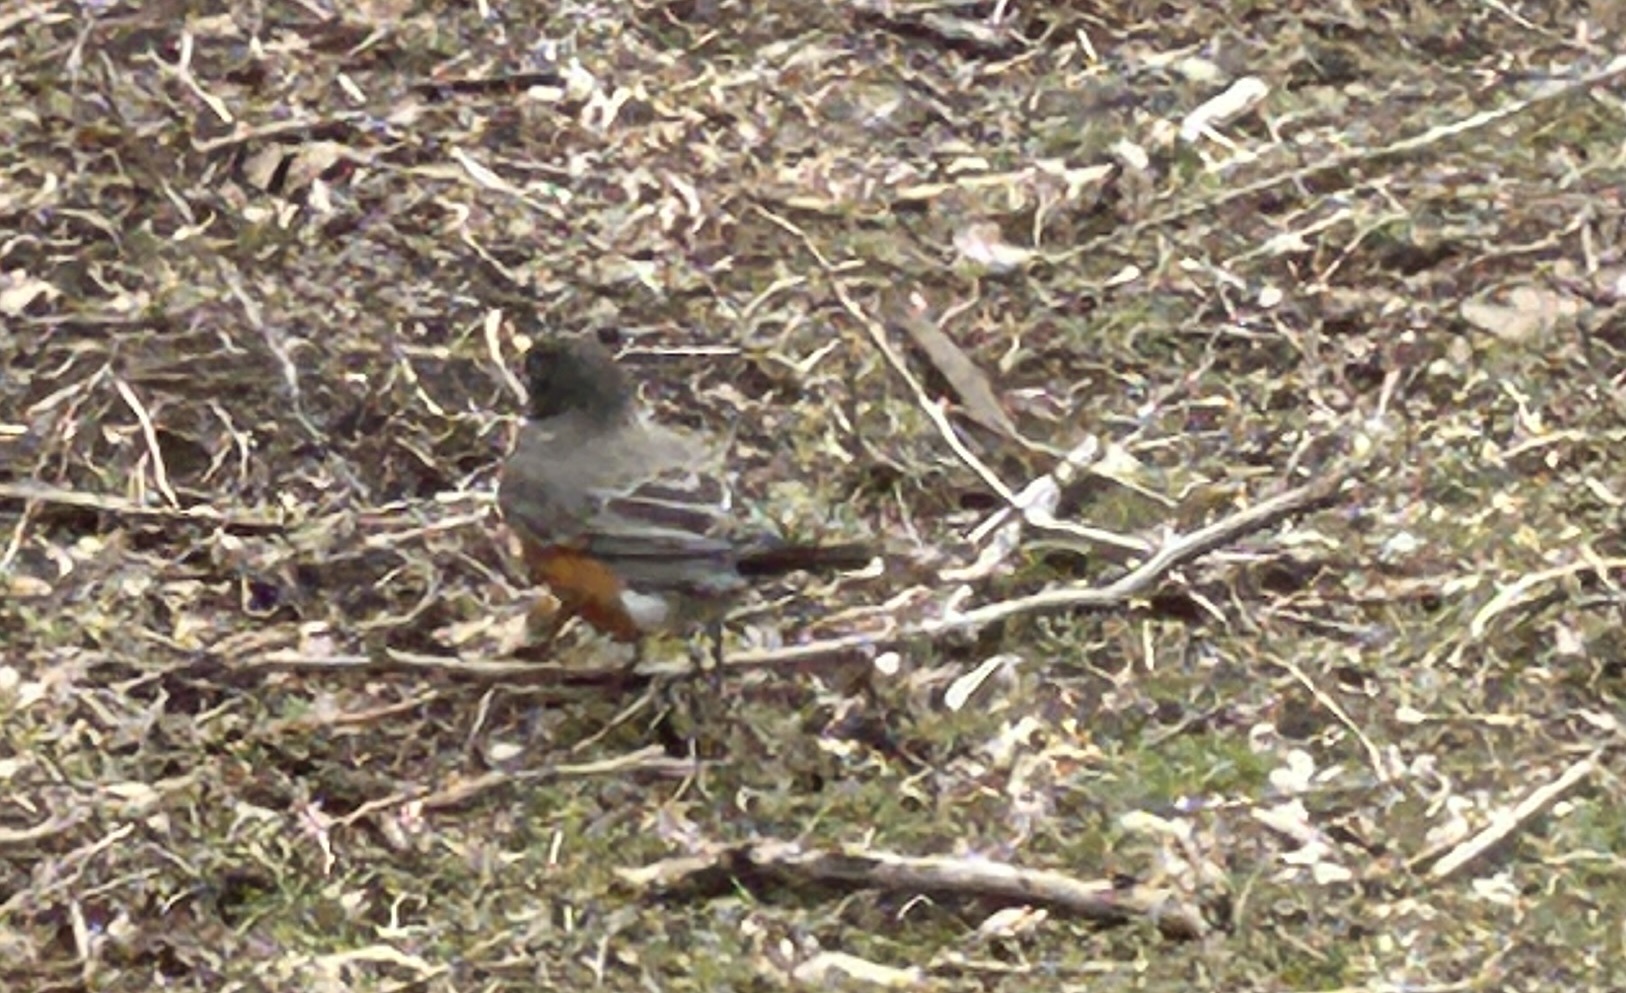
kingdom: Animalia
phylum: Chordata
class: Aves
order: Passeriformes
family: Turdidae
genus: Turdus
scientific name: Turdus migratorius
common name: American robin
